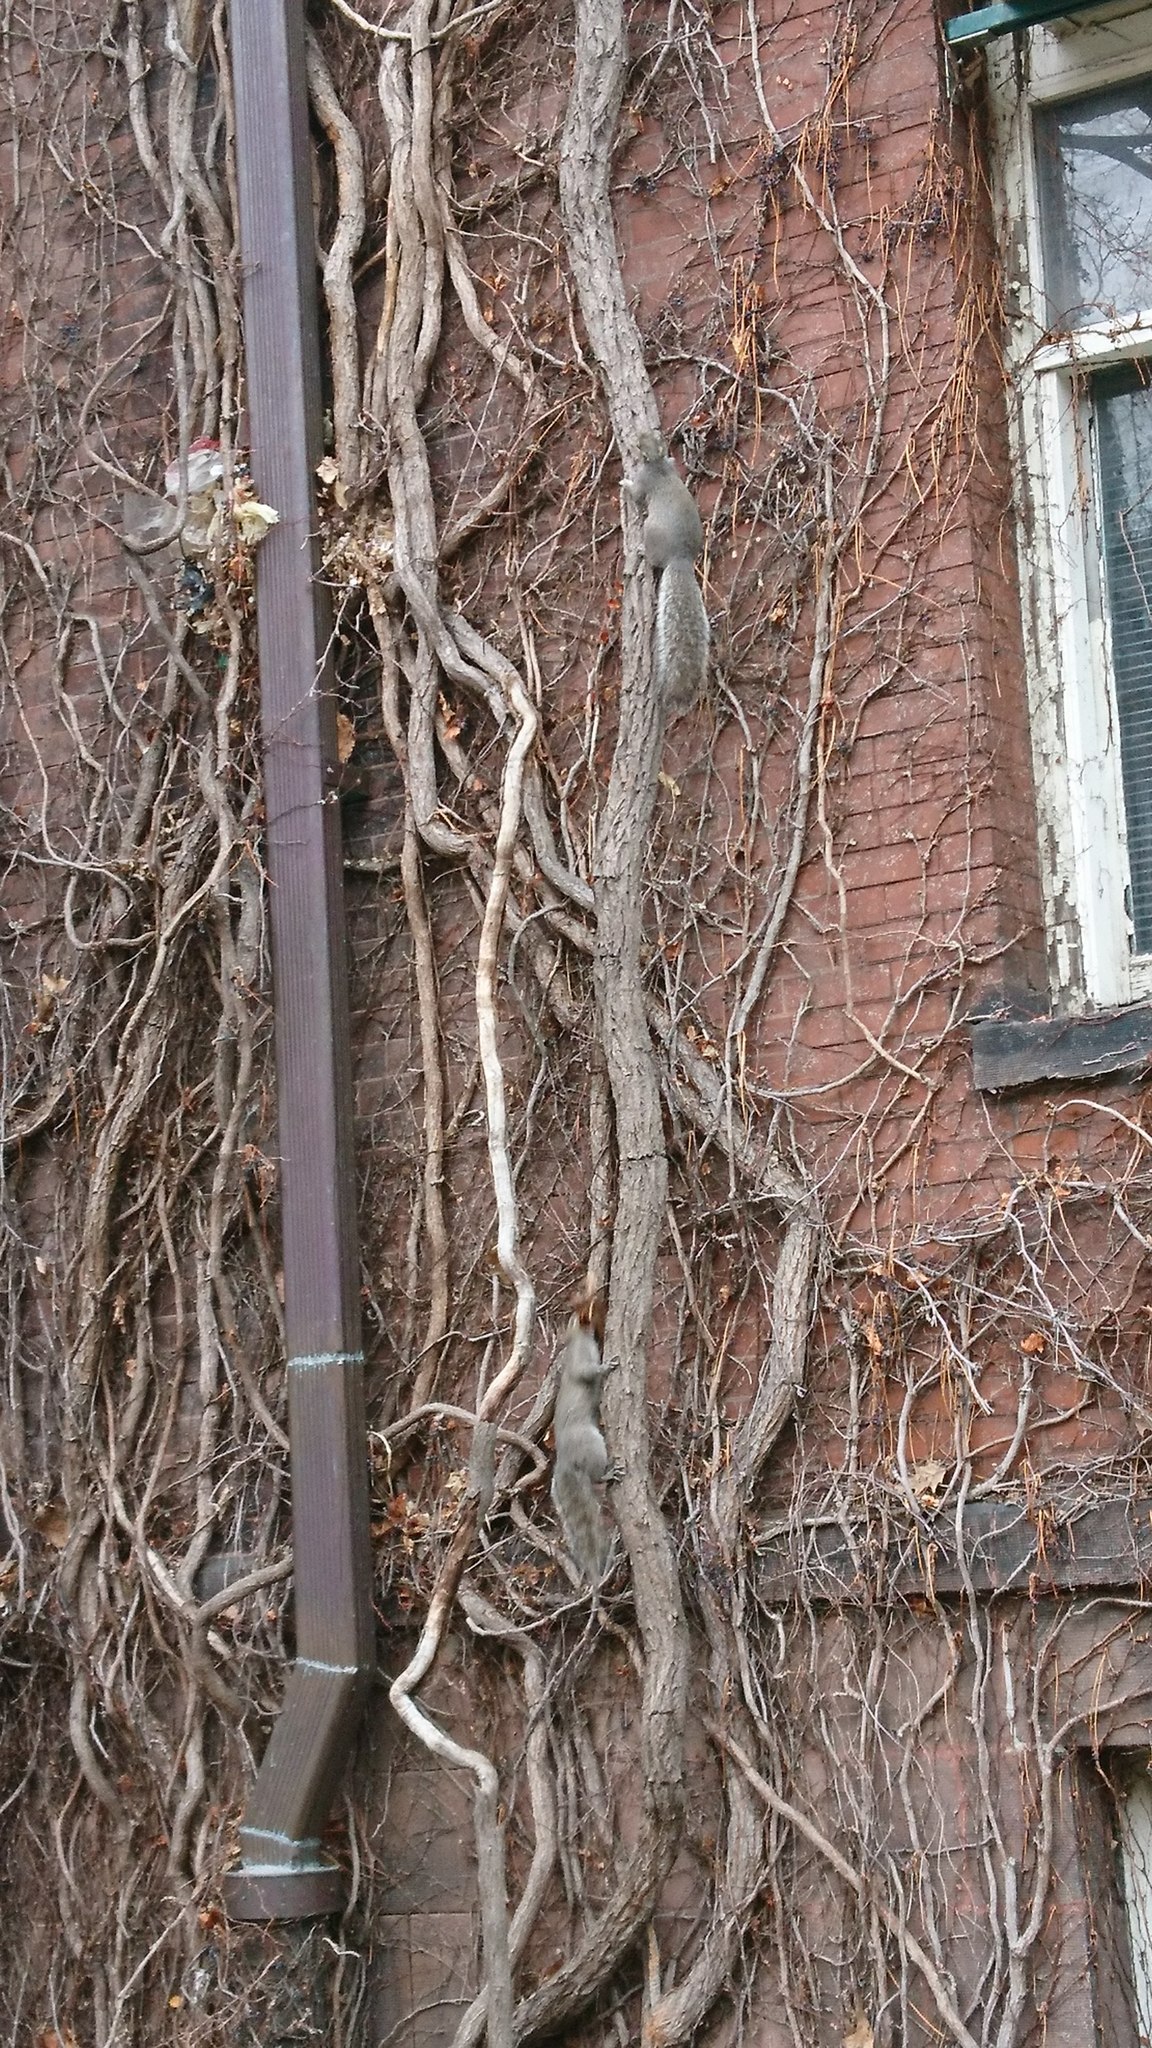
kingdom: Animalia
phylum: Chordata
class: Mammalia
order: Rodentia
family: Sciuridae
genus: Sciurus
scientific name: Sciurus carolinensis
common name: Eastern gray squirrel
